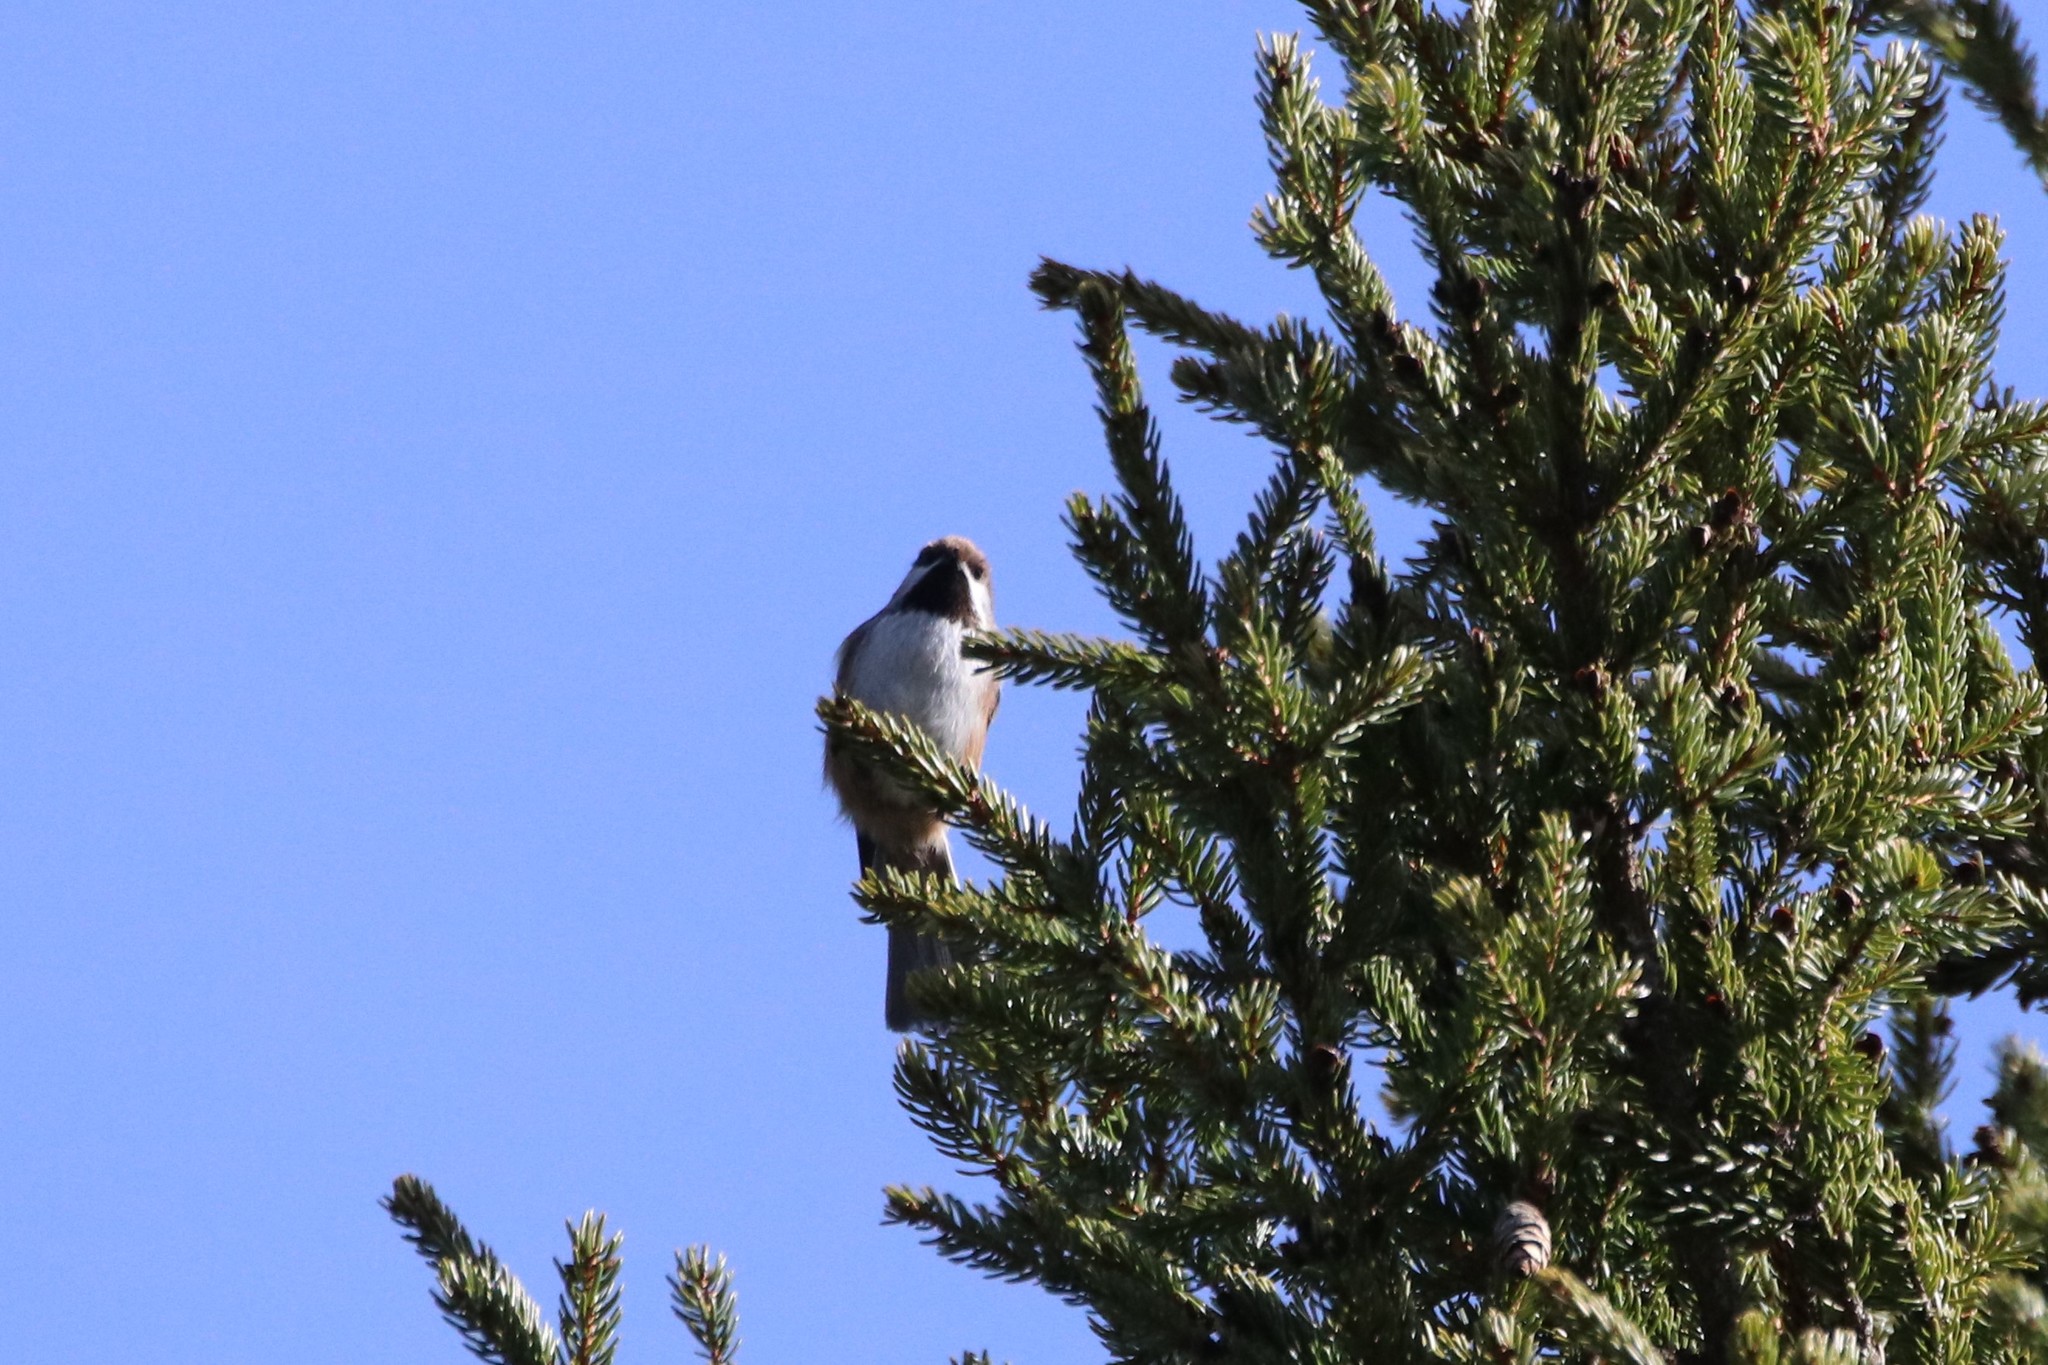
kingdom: Animalia
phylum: Chordata
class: Aves
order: Passeriformes
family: Paridae
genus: Poecile
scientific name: Poecile hudsonicus
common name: Boreal chickadee
